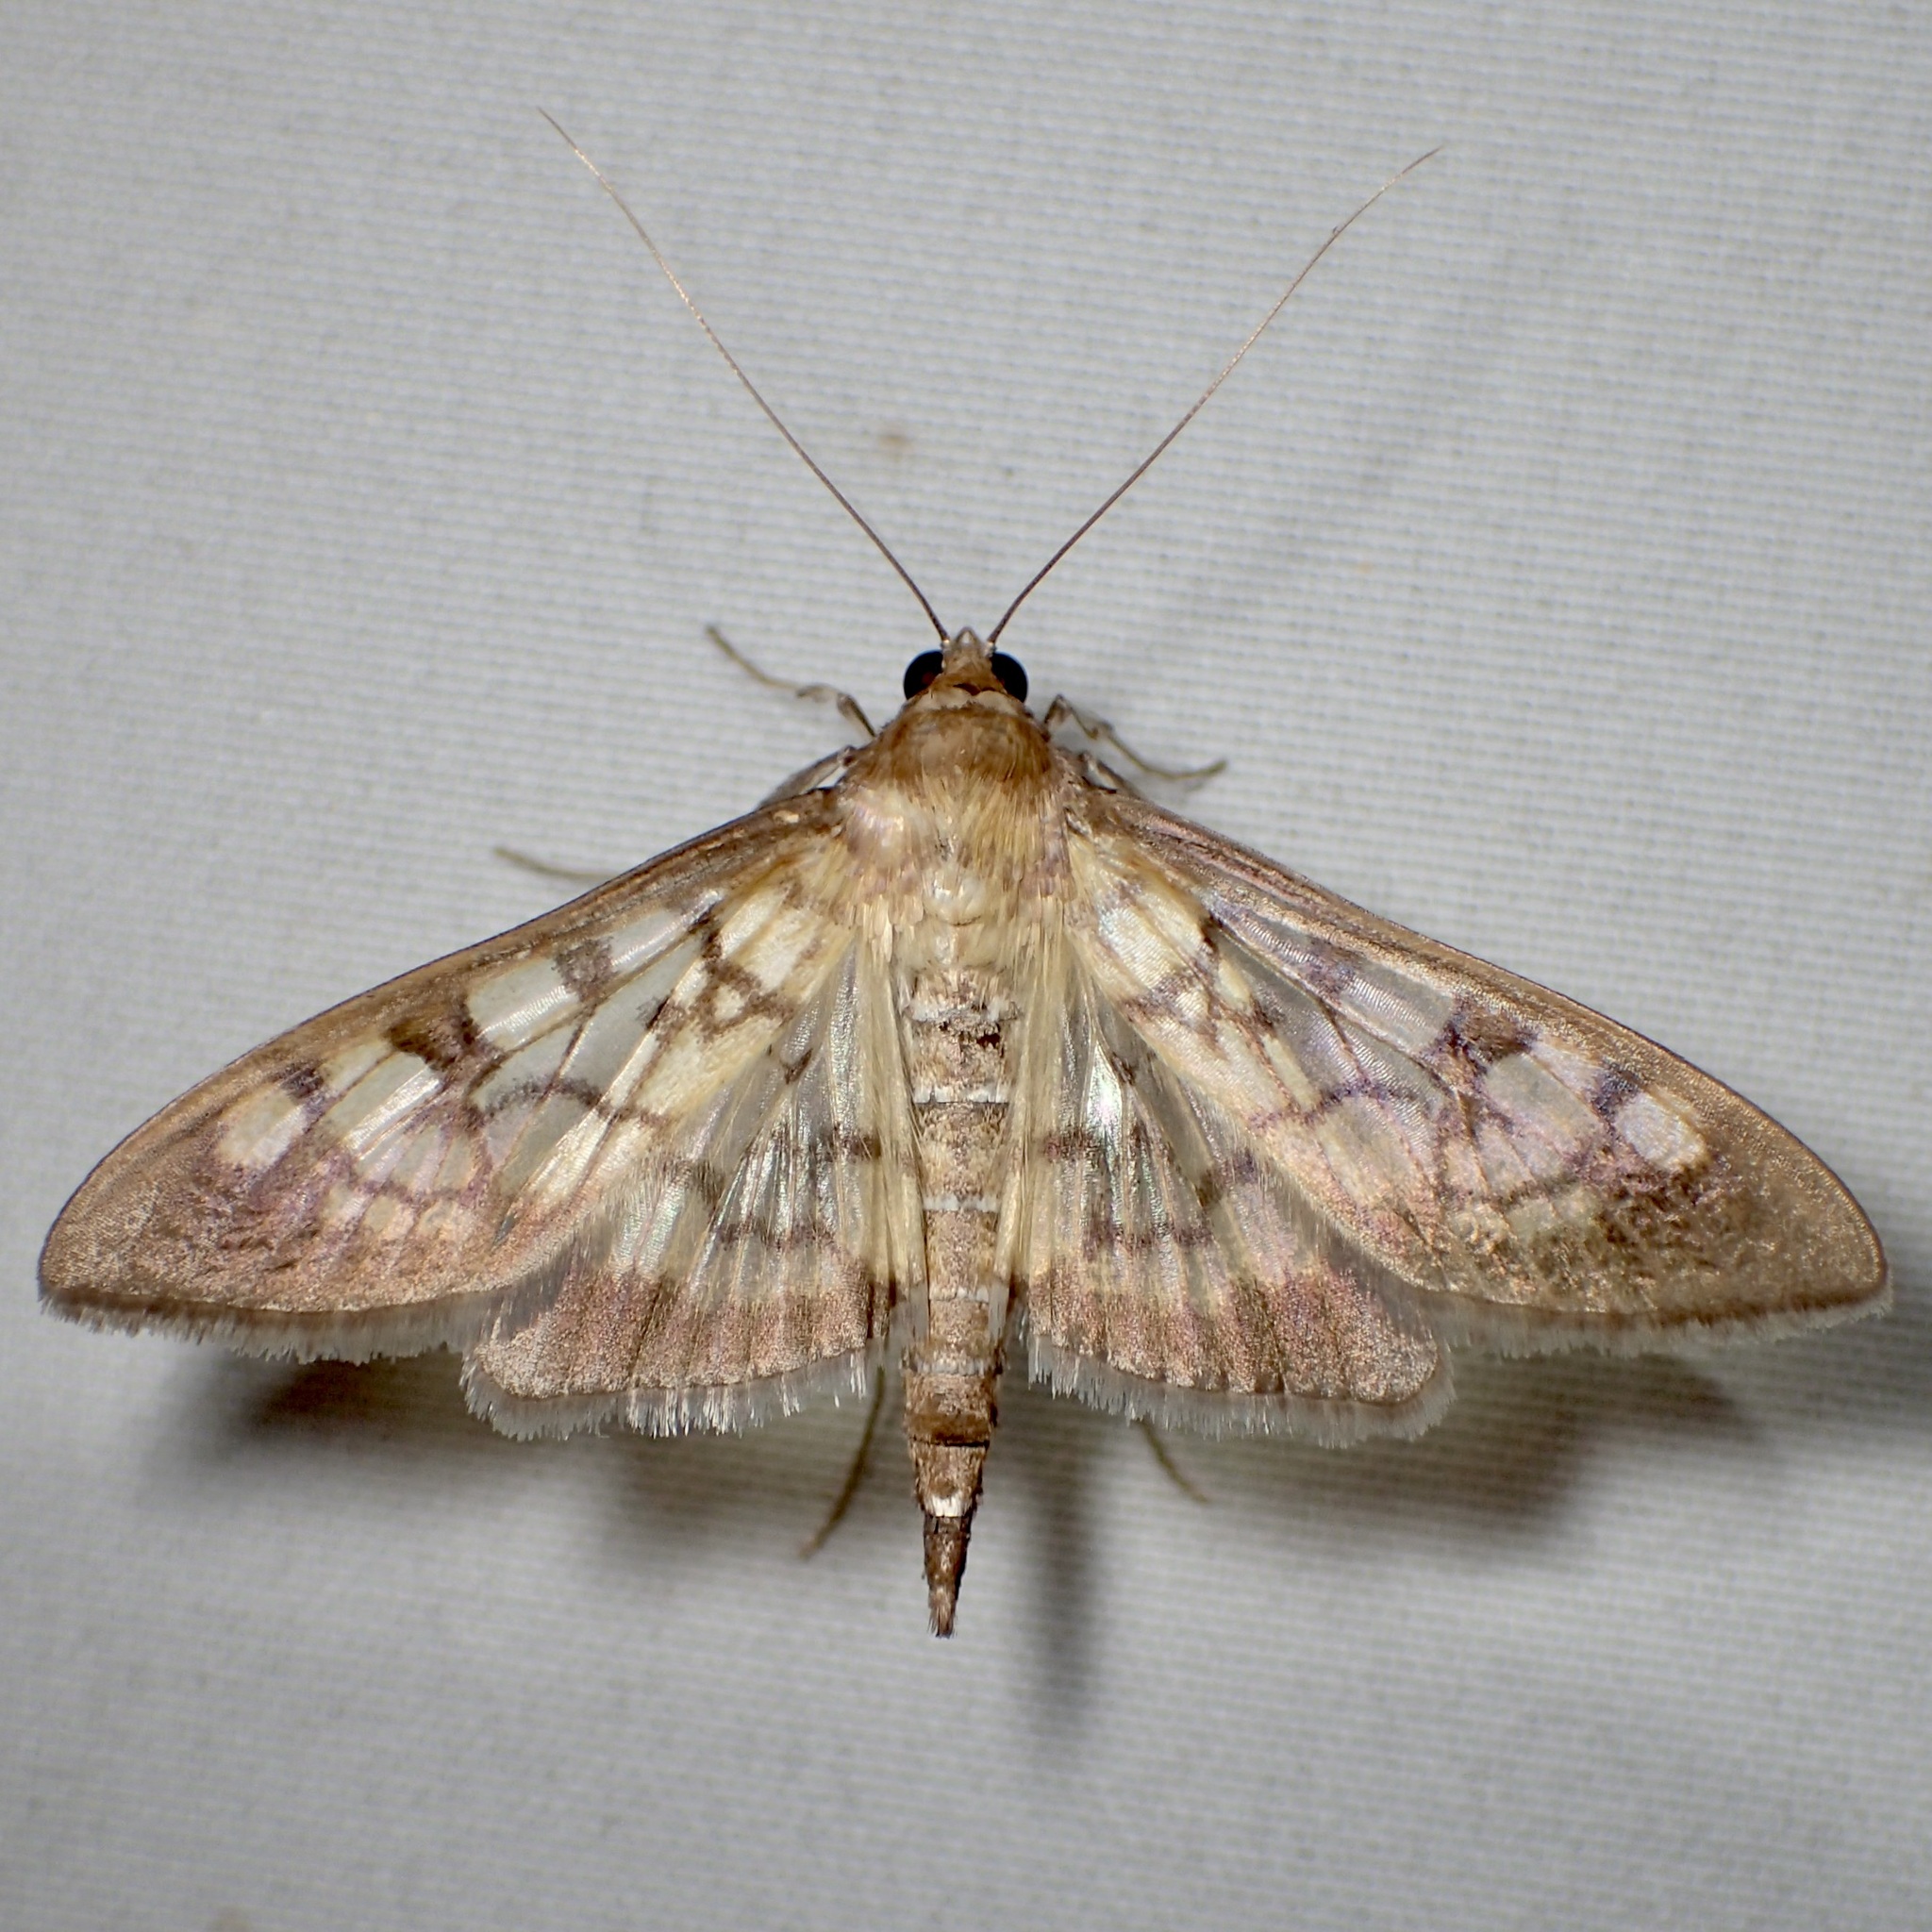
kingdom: Animalia
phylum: Arthropoda
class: Insecta
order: Lepidoptera
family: Crambidae
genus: Mimorista
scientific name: Mimorista subcostalis
